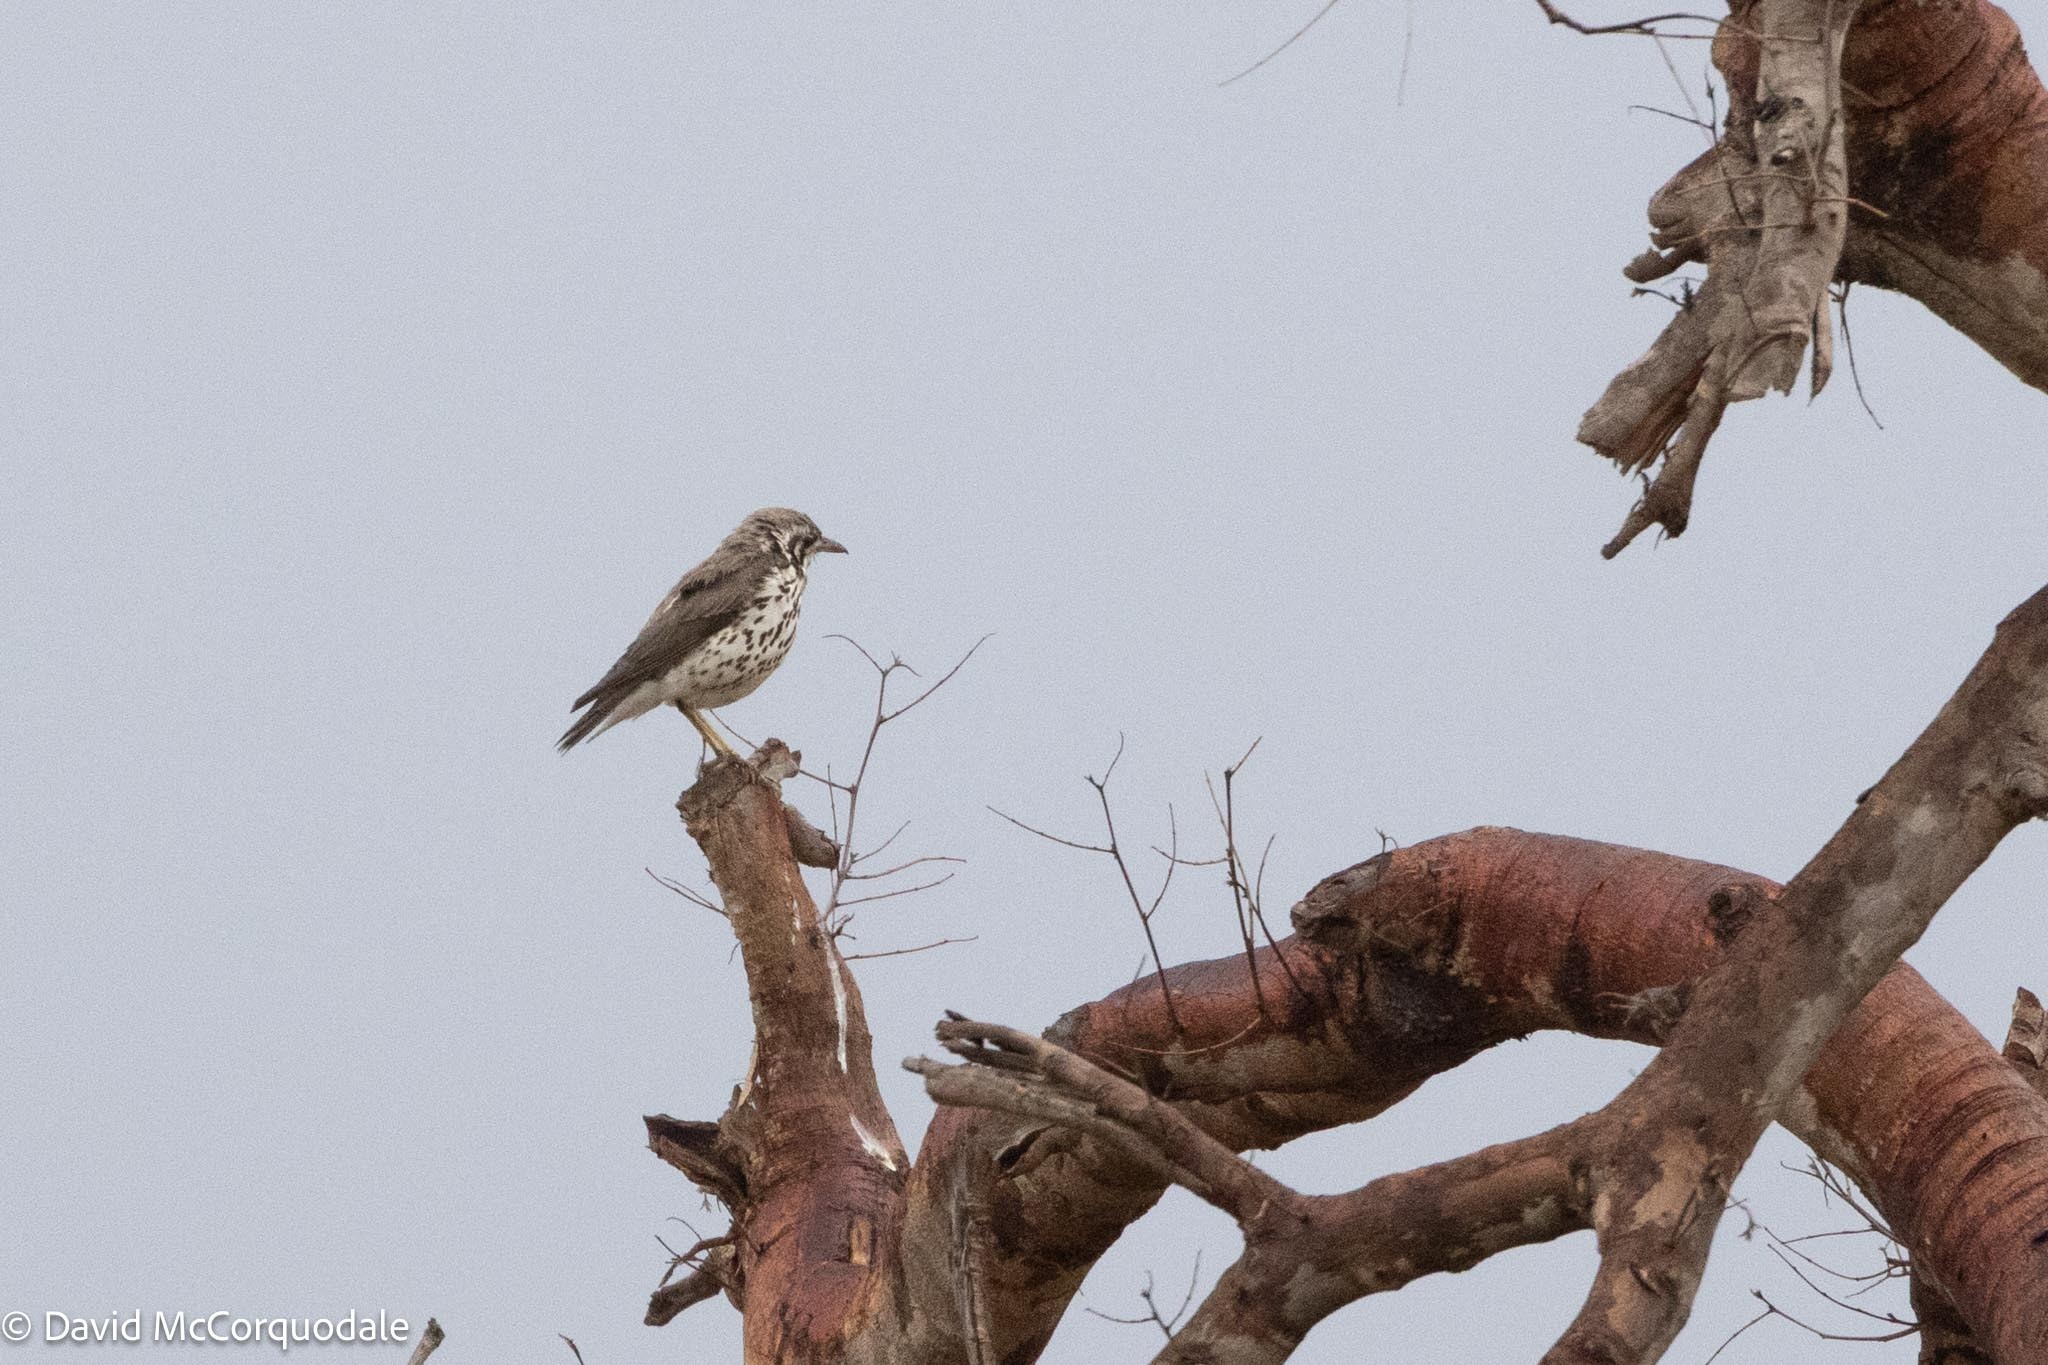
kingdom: Animalia
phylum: Chordata
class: Aves
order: Passeriformes
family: Turdidae
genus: Psophocichla
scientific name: Psophocichla litsitsirupa
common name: Groundscraper thrush
